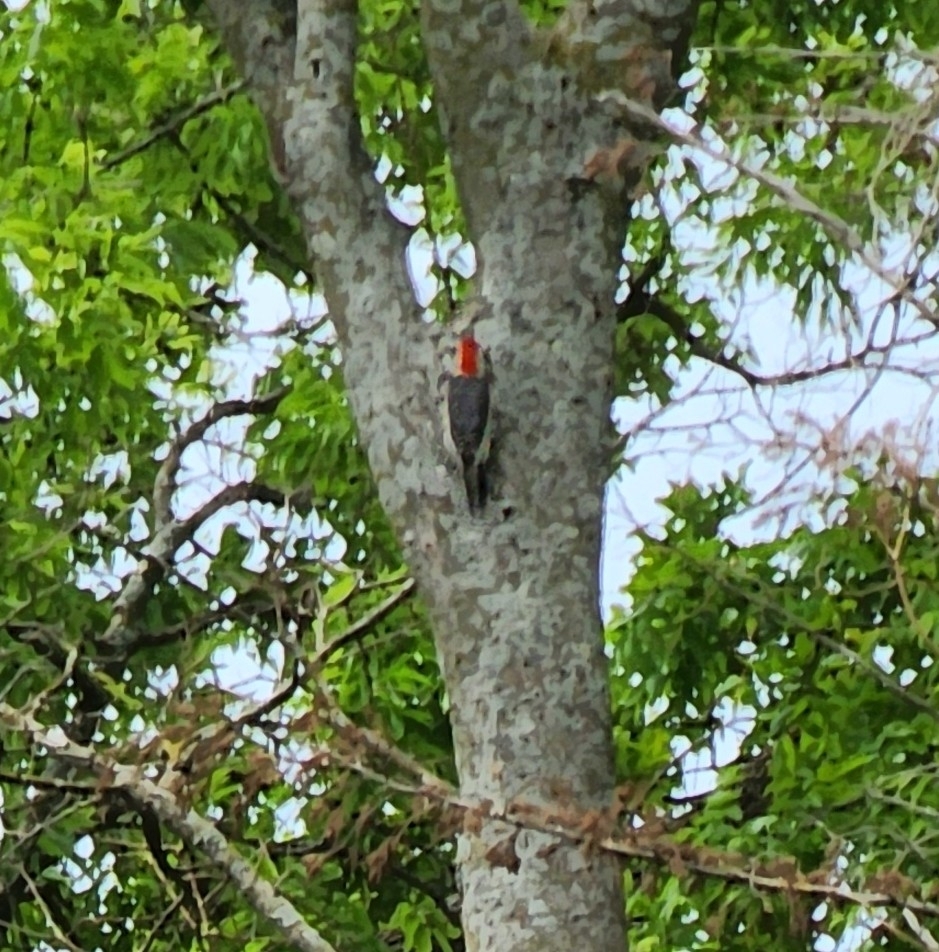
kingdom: Animalia
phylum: Chordata
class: Aves
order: Piciformes
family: Picidae
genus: Melanerpes
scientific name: Melanerpes carolinus
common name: Red-bellied woodpecker
